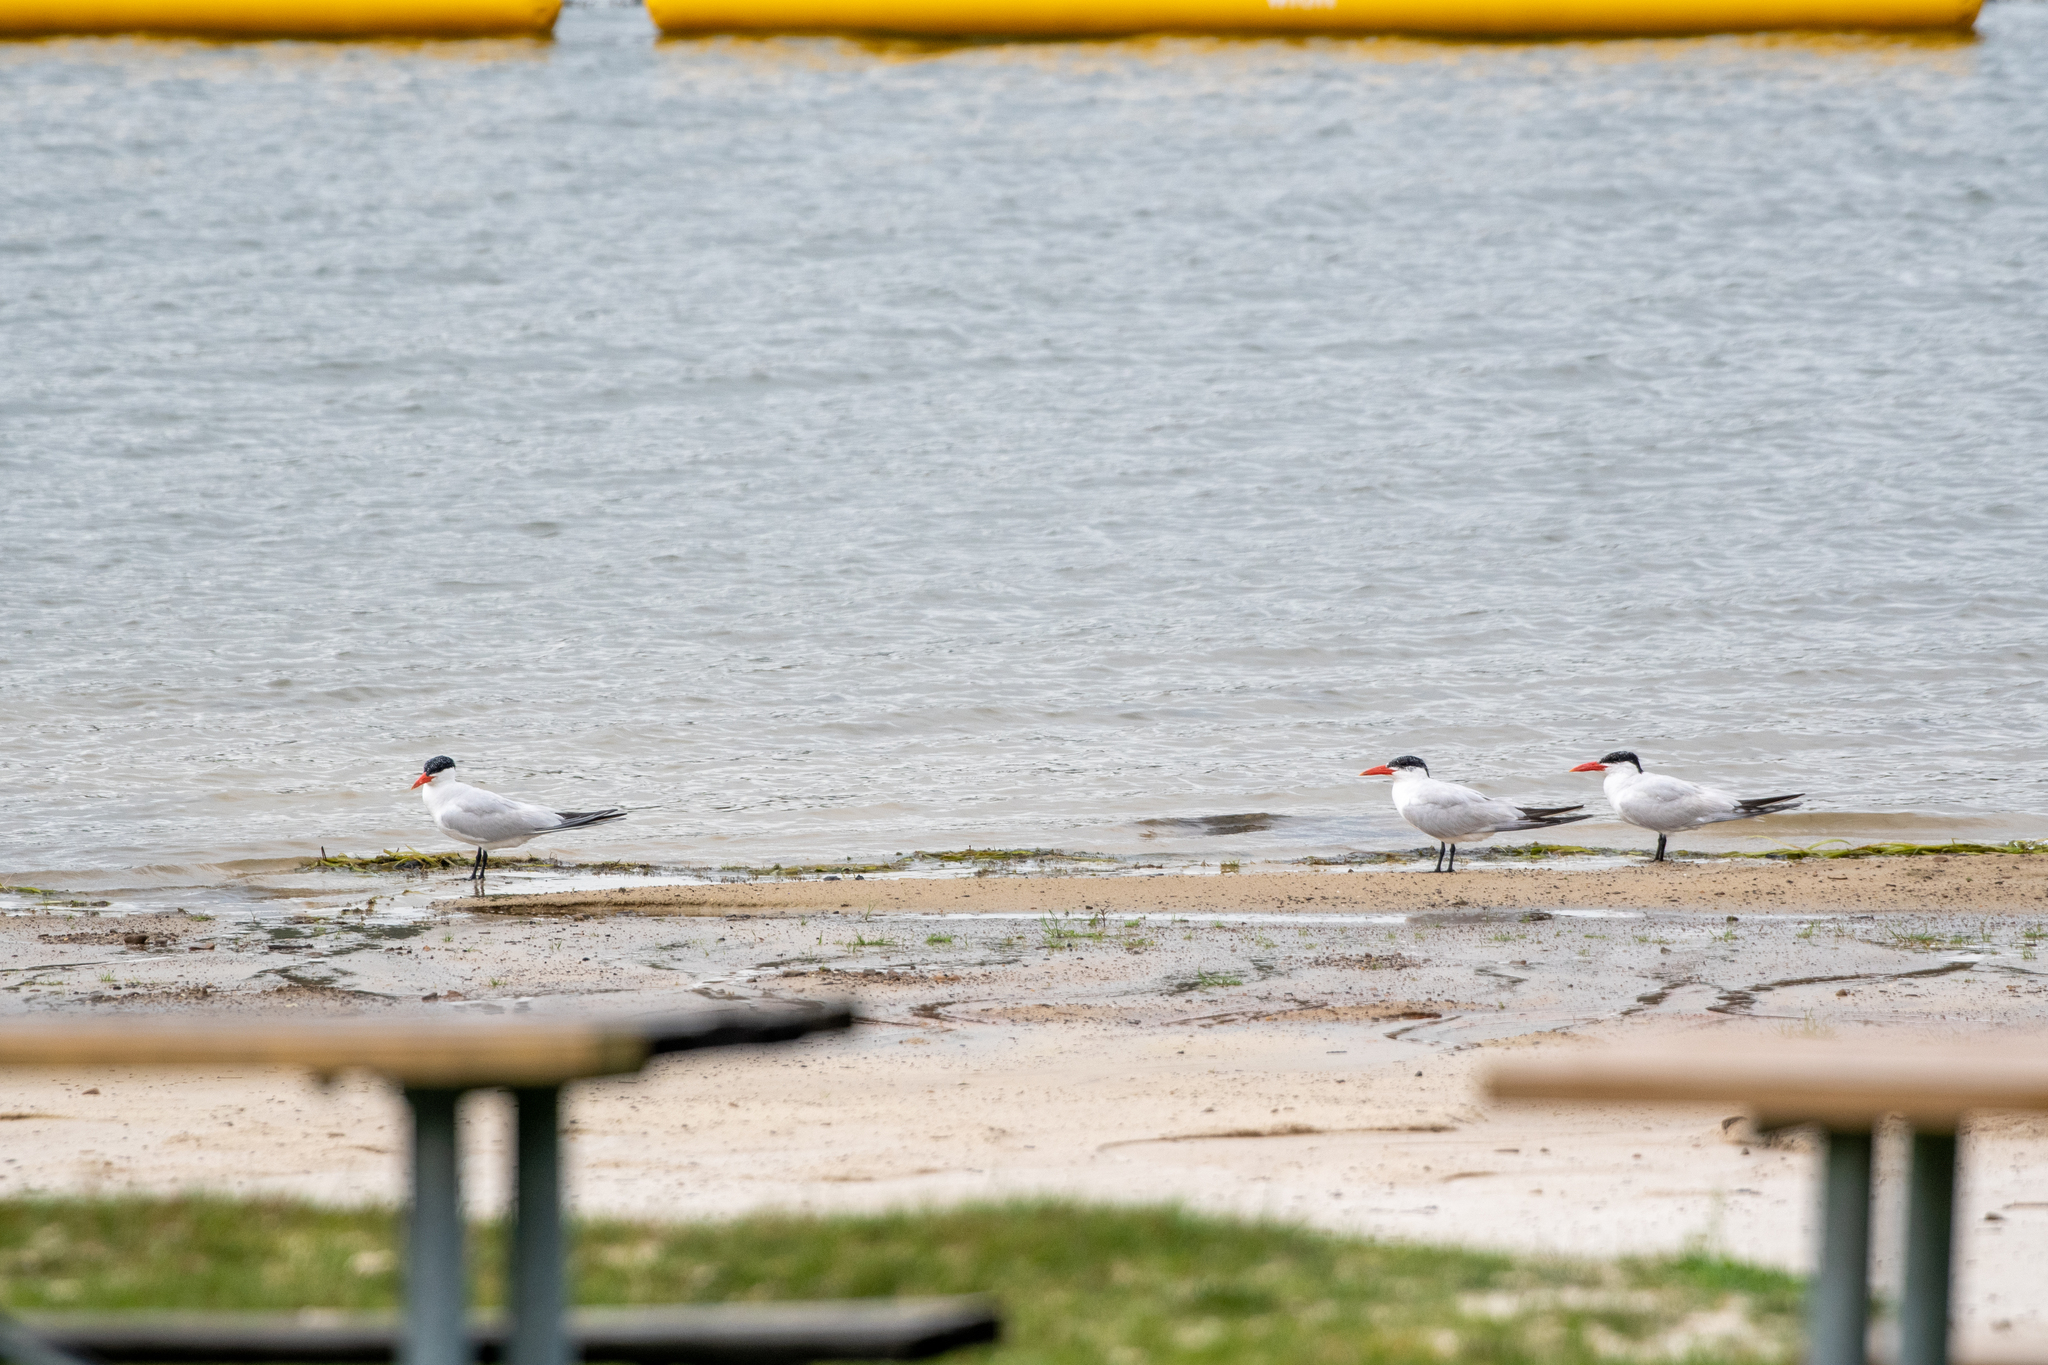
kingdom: Animalia
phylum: Chordata
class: Aves
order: Charadriiformes
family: Laridae
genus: Hydroprogne
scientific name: Hydroprogne caspia
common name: Caspian tern
